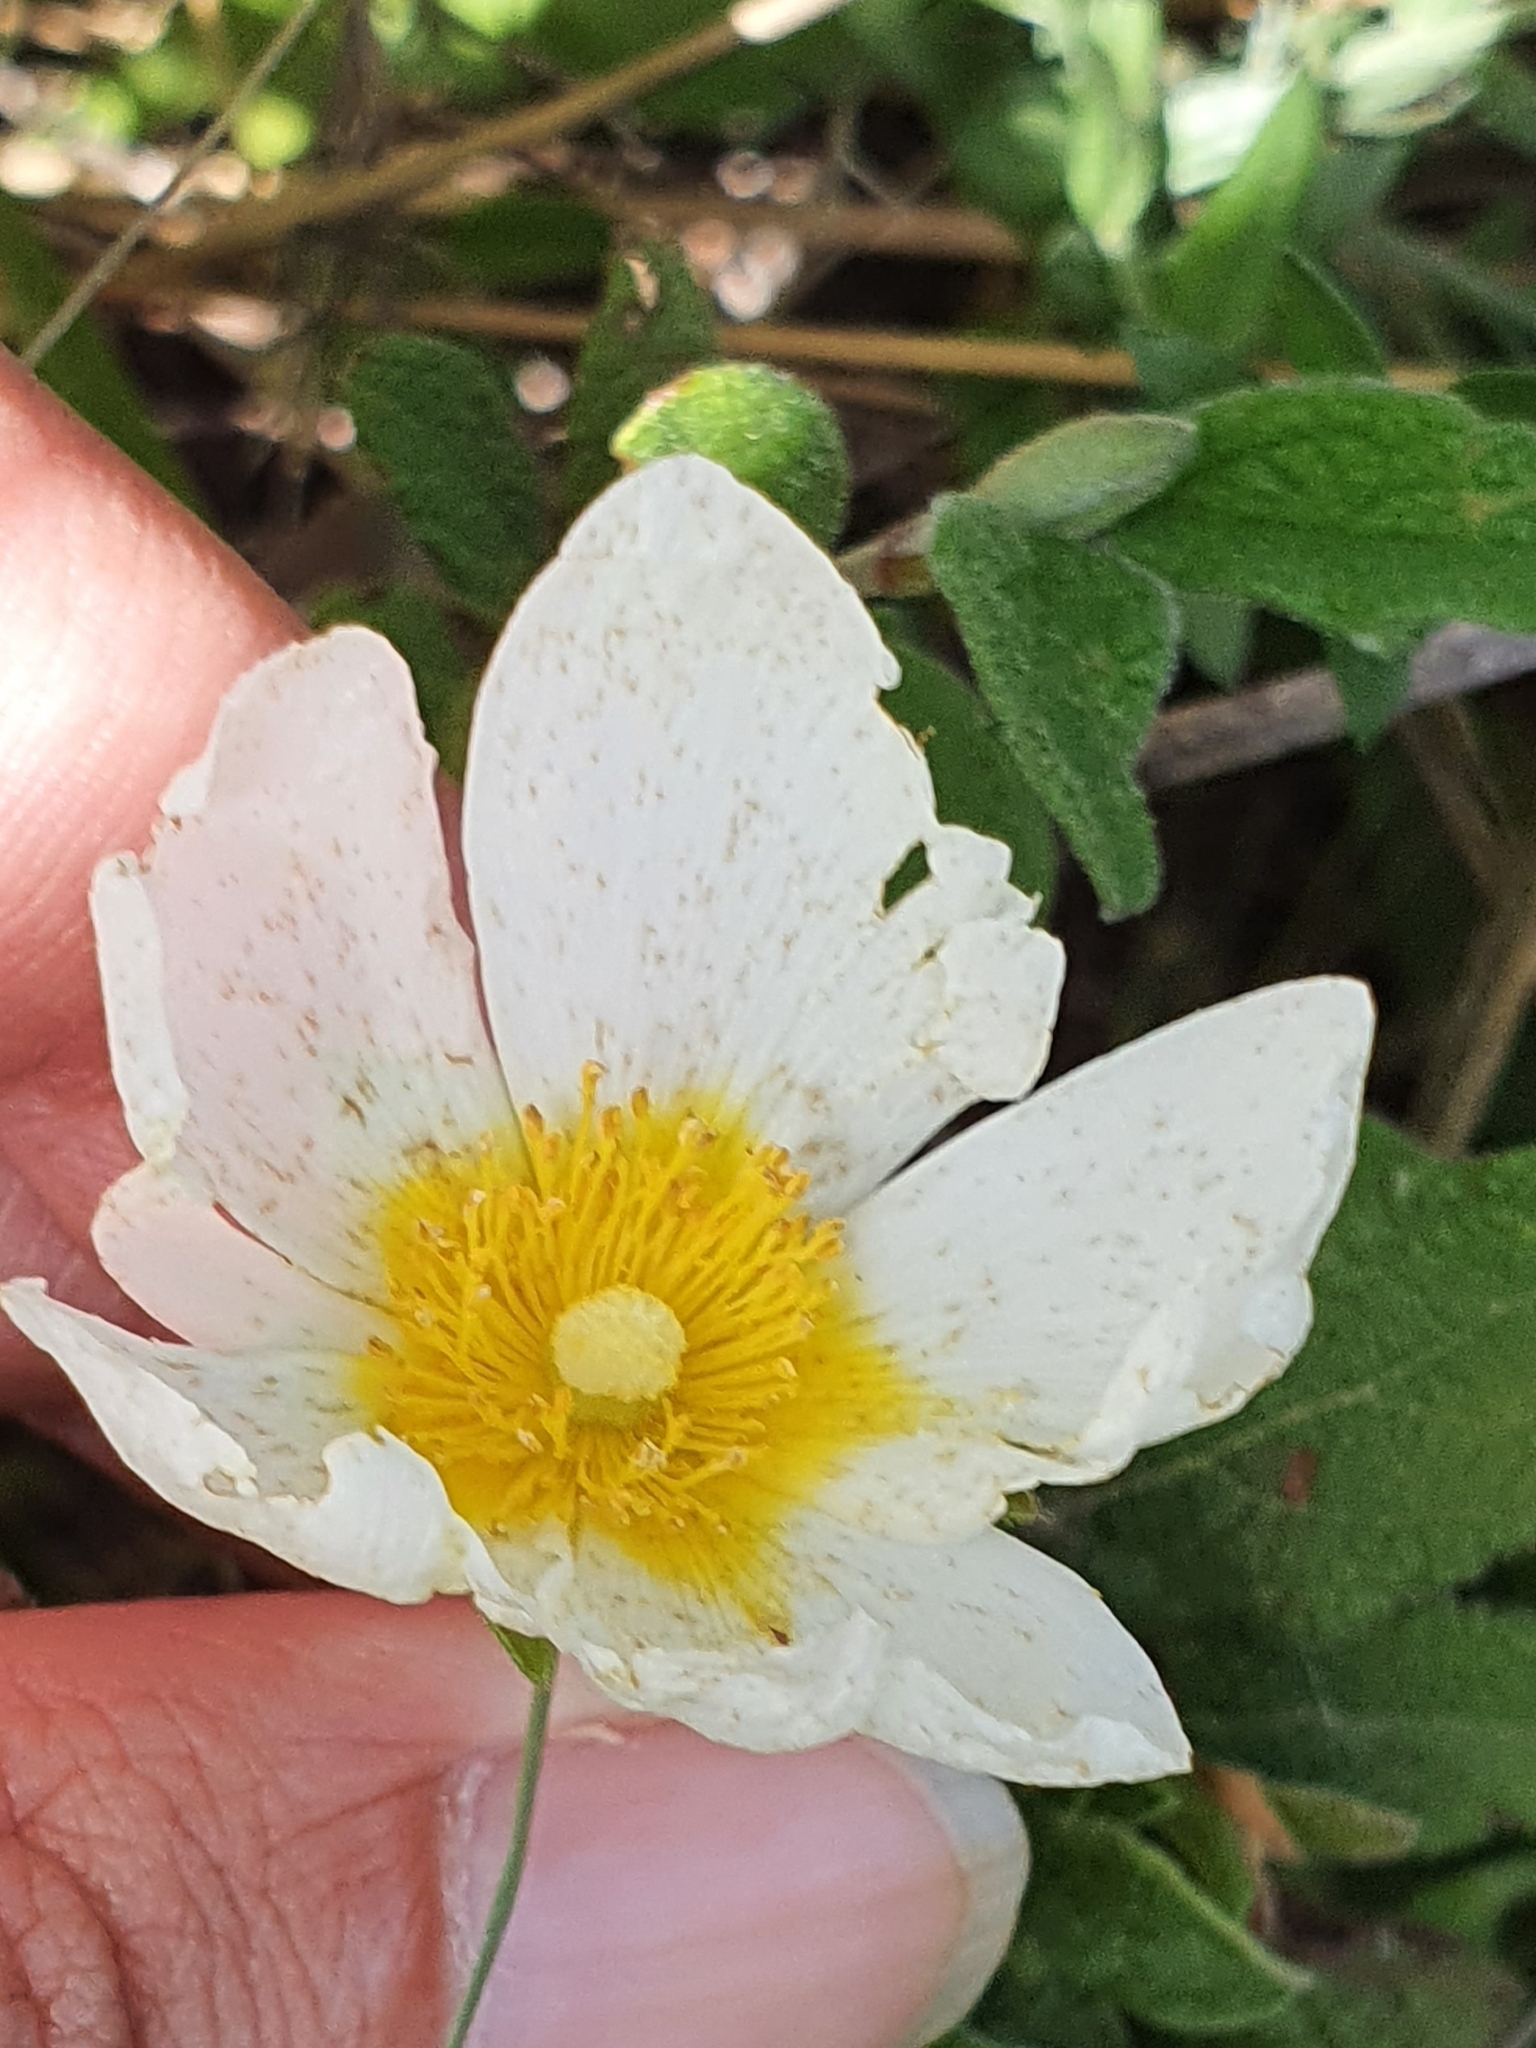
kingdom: Plantae
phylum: Tracheophyta
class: Magnoliopsida
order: Malvales
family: Cistaceae
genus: Cistus
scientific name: Cistus salviifolius
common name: Salvia cistus
